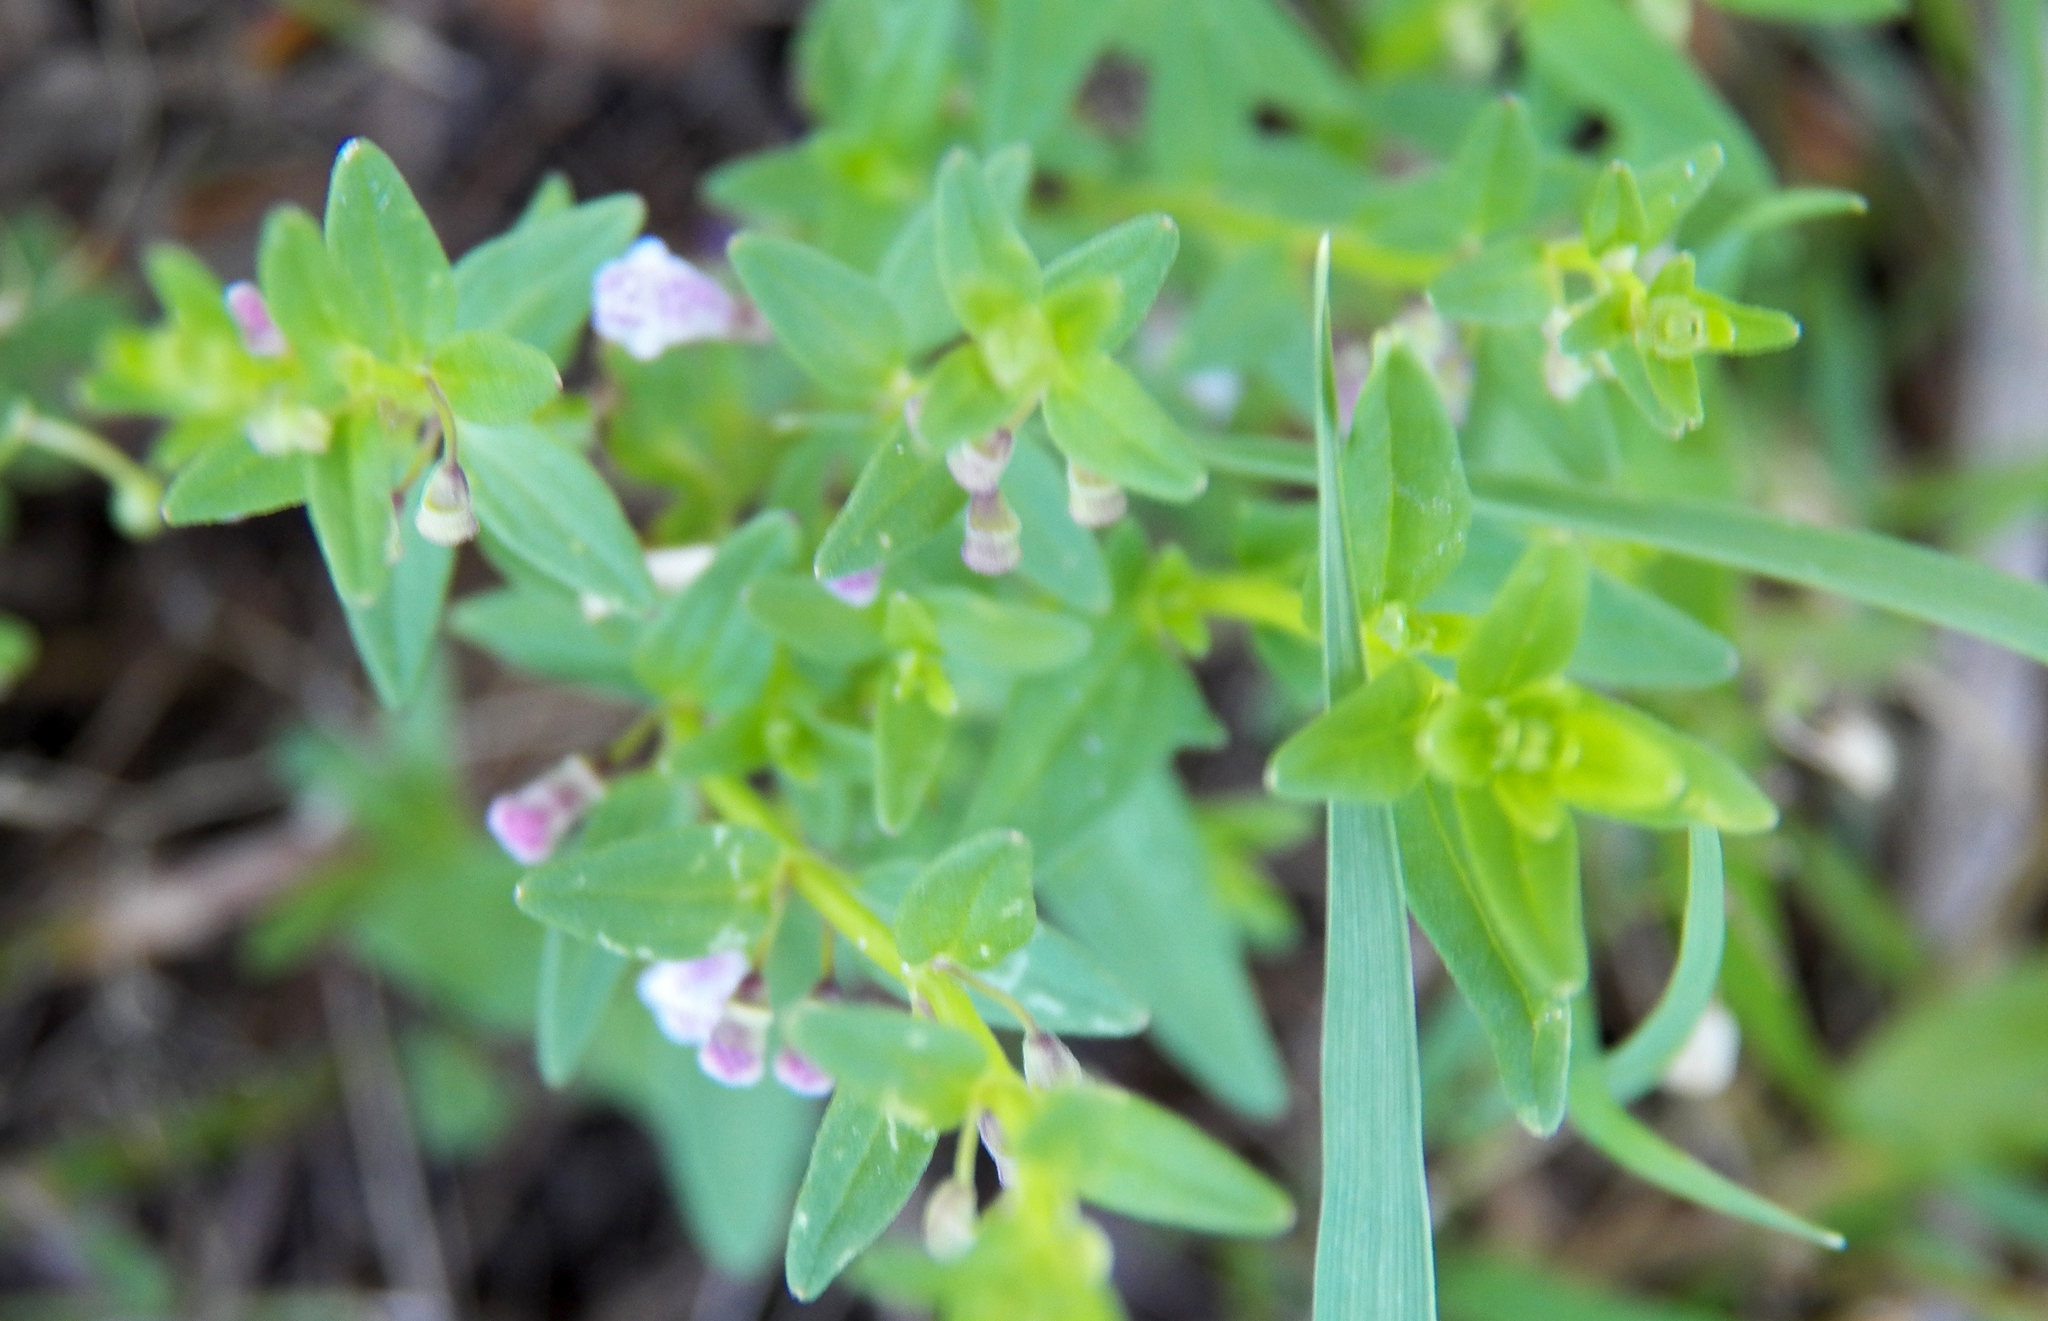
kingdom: Plantae
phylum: Tracheophyta
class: Magnoliopsida
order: Lamiales
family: Lamiaceae
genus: Scutellaria
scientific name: Scutellaria racemosa
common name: South american skullcap
